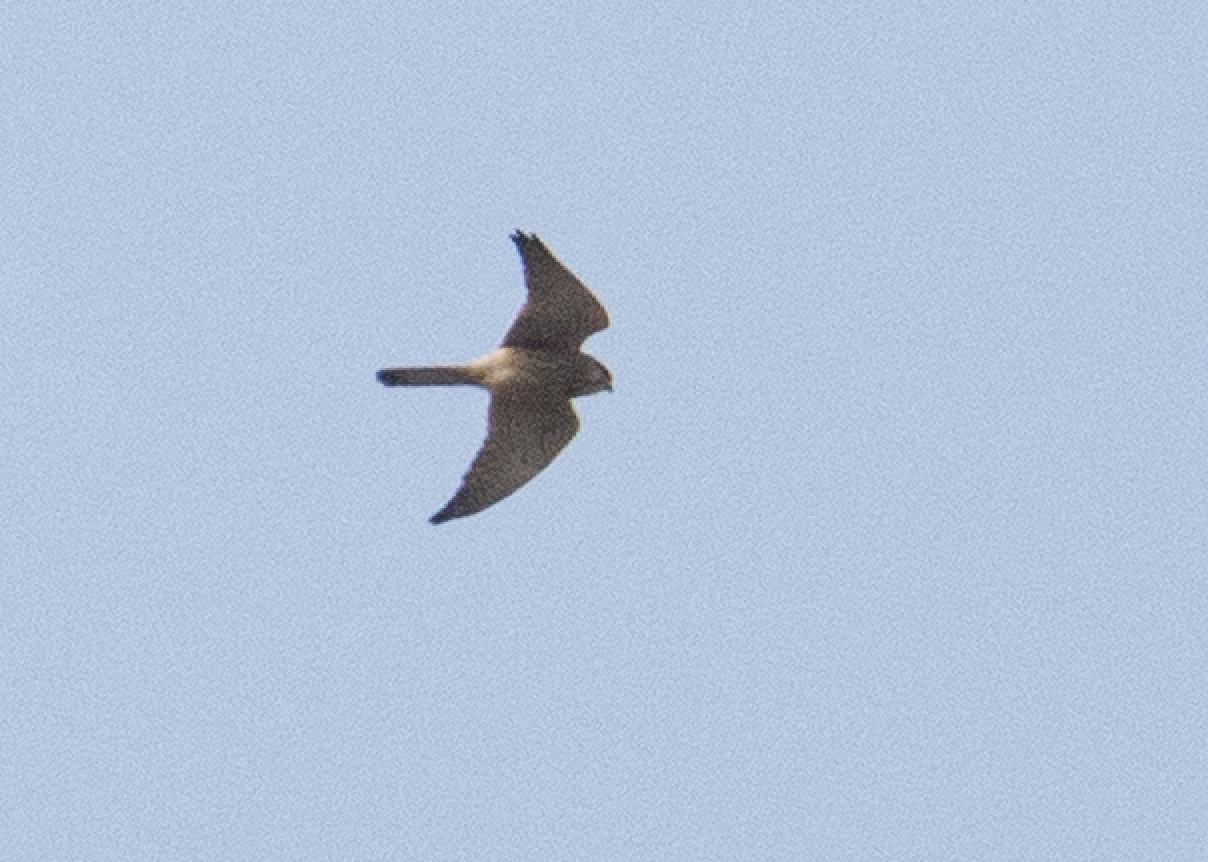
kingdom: Animalia
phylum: Chordata
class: Aves
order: Falconiformes
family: Falconidae
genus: Falco
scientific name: Falco tinnunculus
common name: Common kestrel
